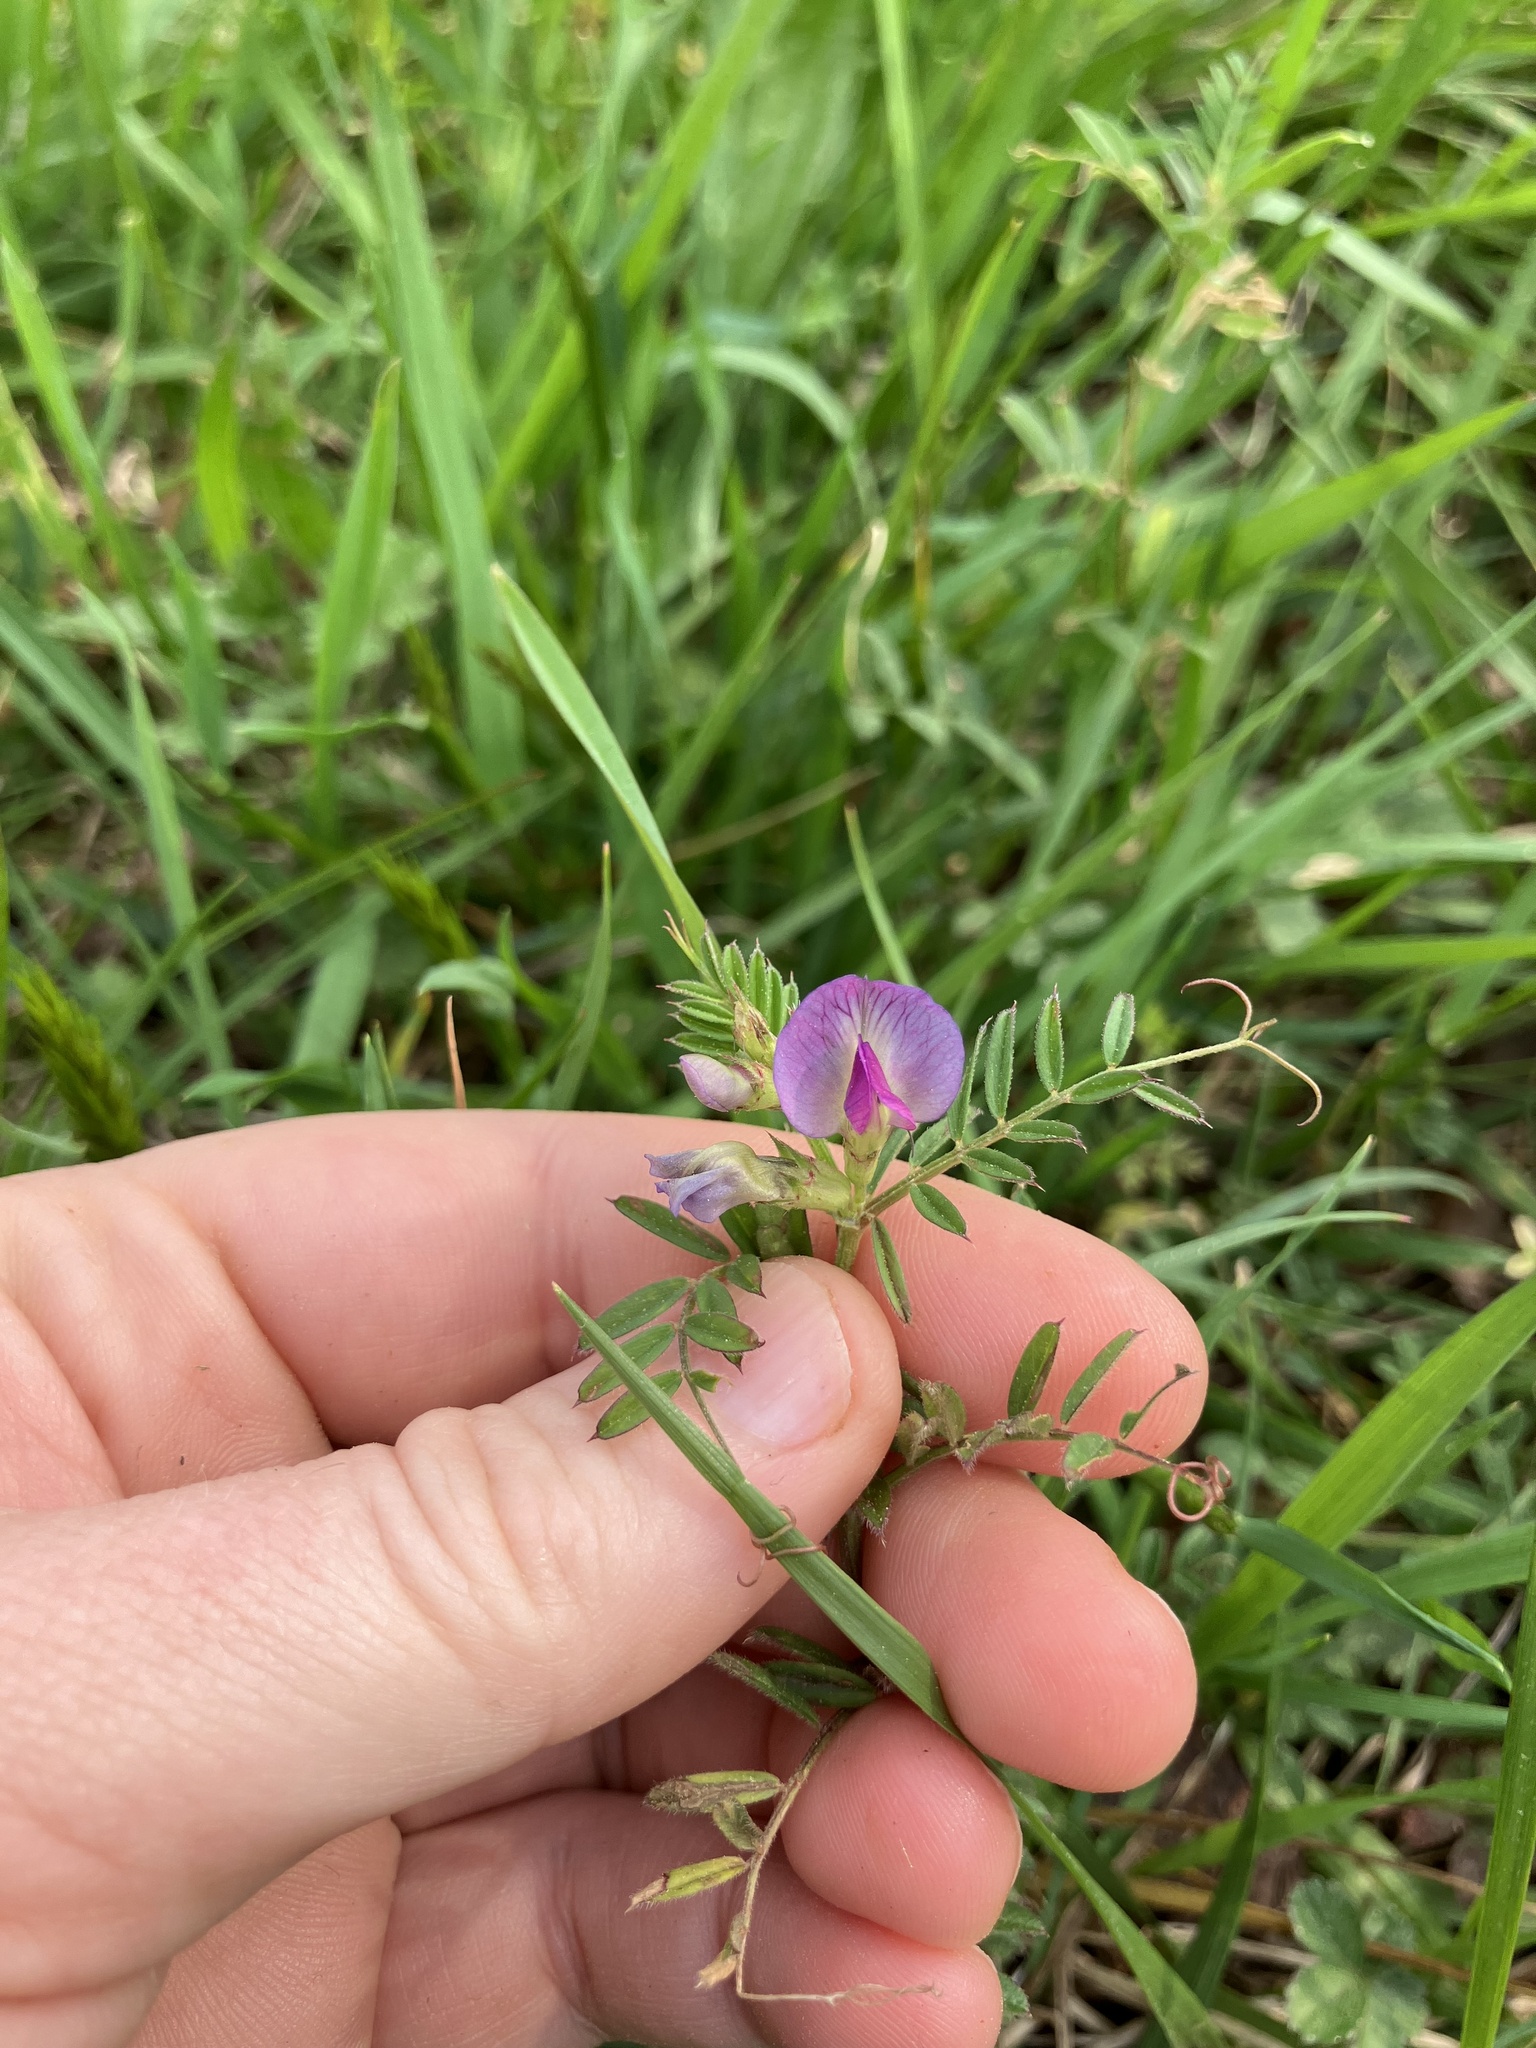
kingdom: Plantae
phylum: Tracheophyta
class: Magnoliopsida
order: Fabales
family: Fabaceae
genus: Vicia
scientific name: Vicia sativa
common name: Garden vetch
